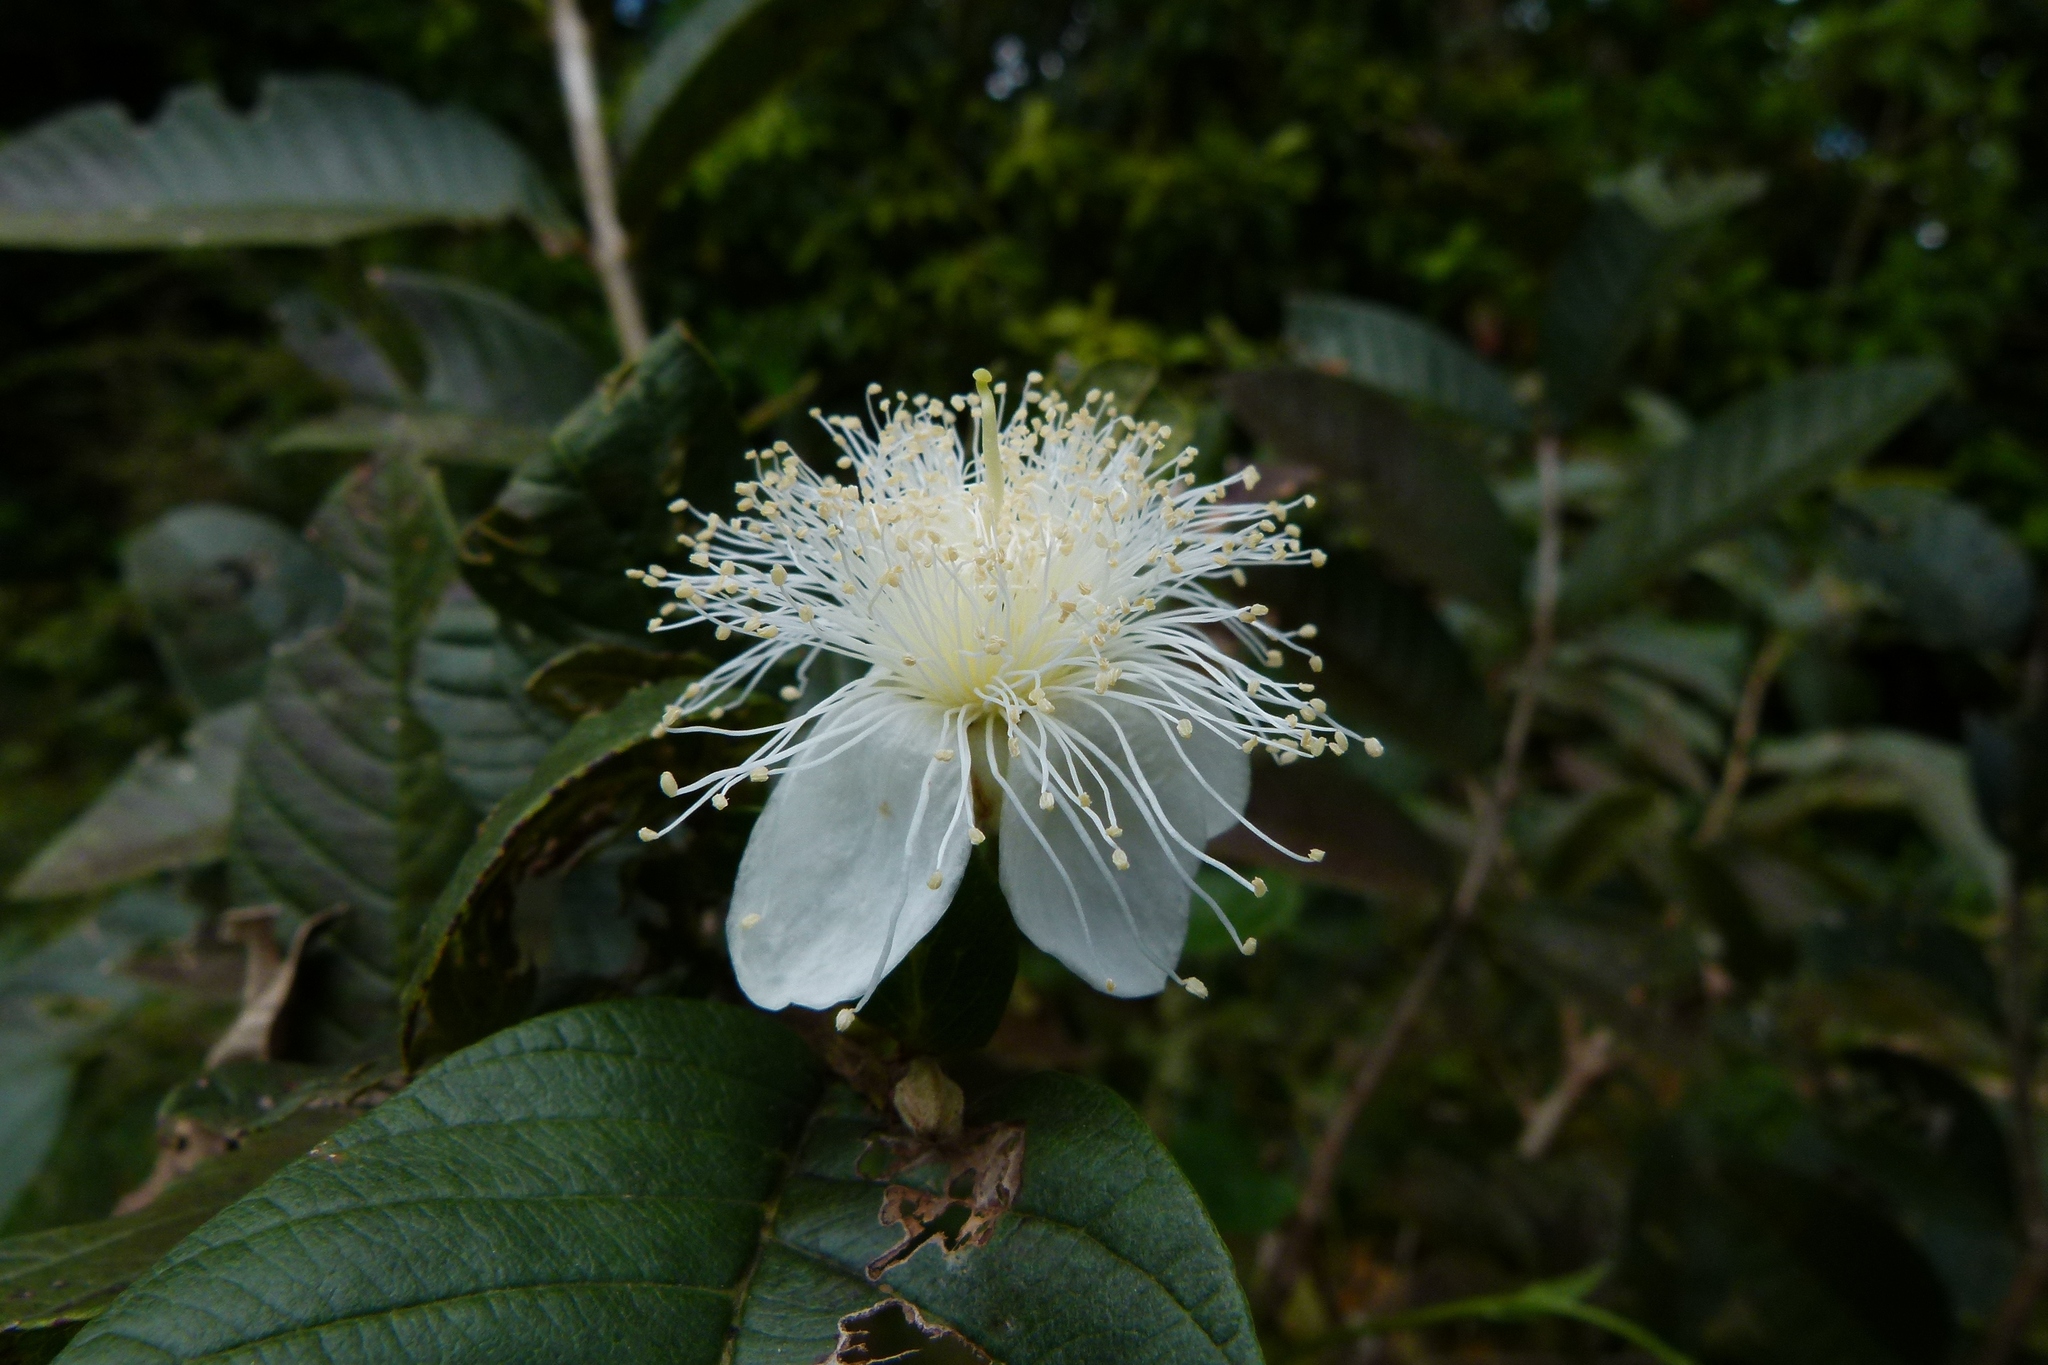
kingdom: Plantae
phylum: Tracheophyta
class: Magnoliopsida
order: Myrtales
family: Myrtaceae
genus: Psidium
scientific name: Psidium guajava
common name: Guava
